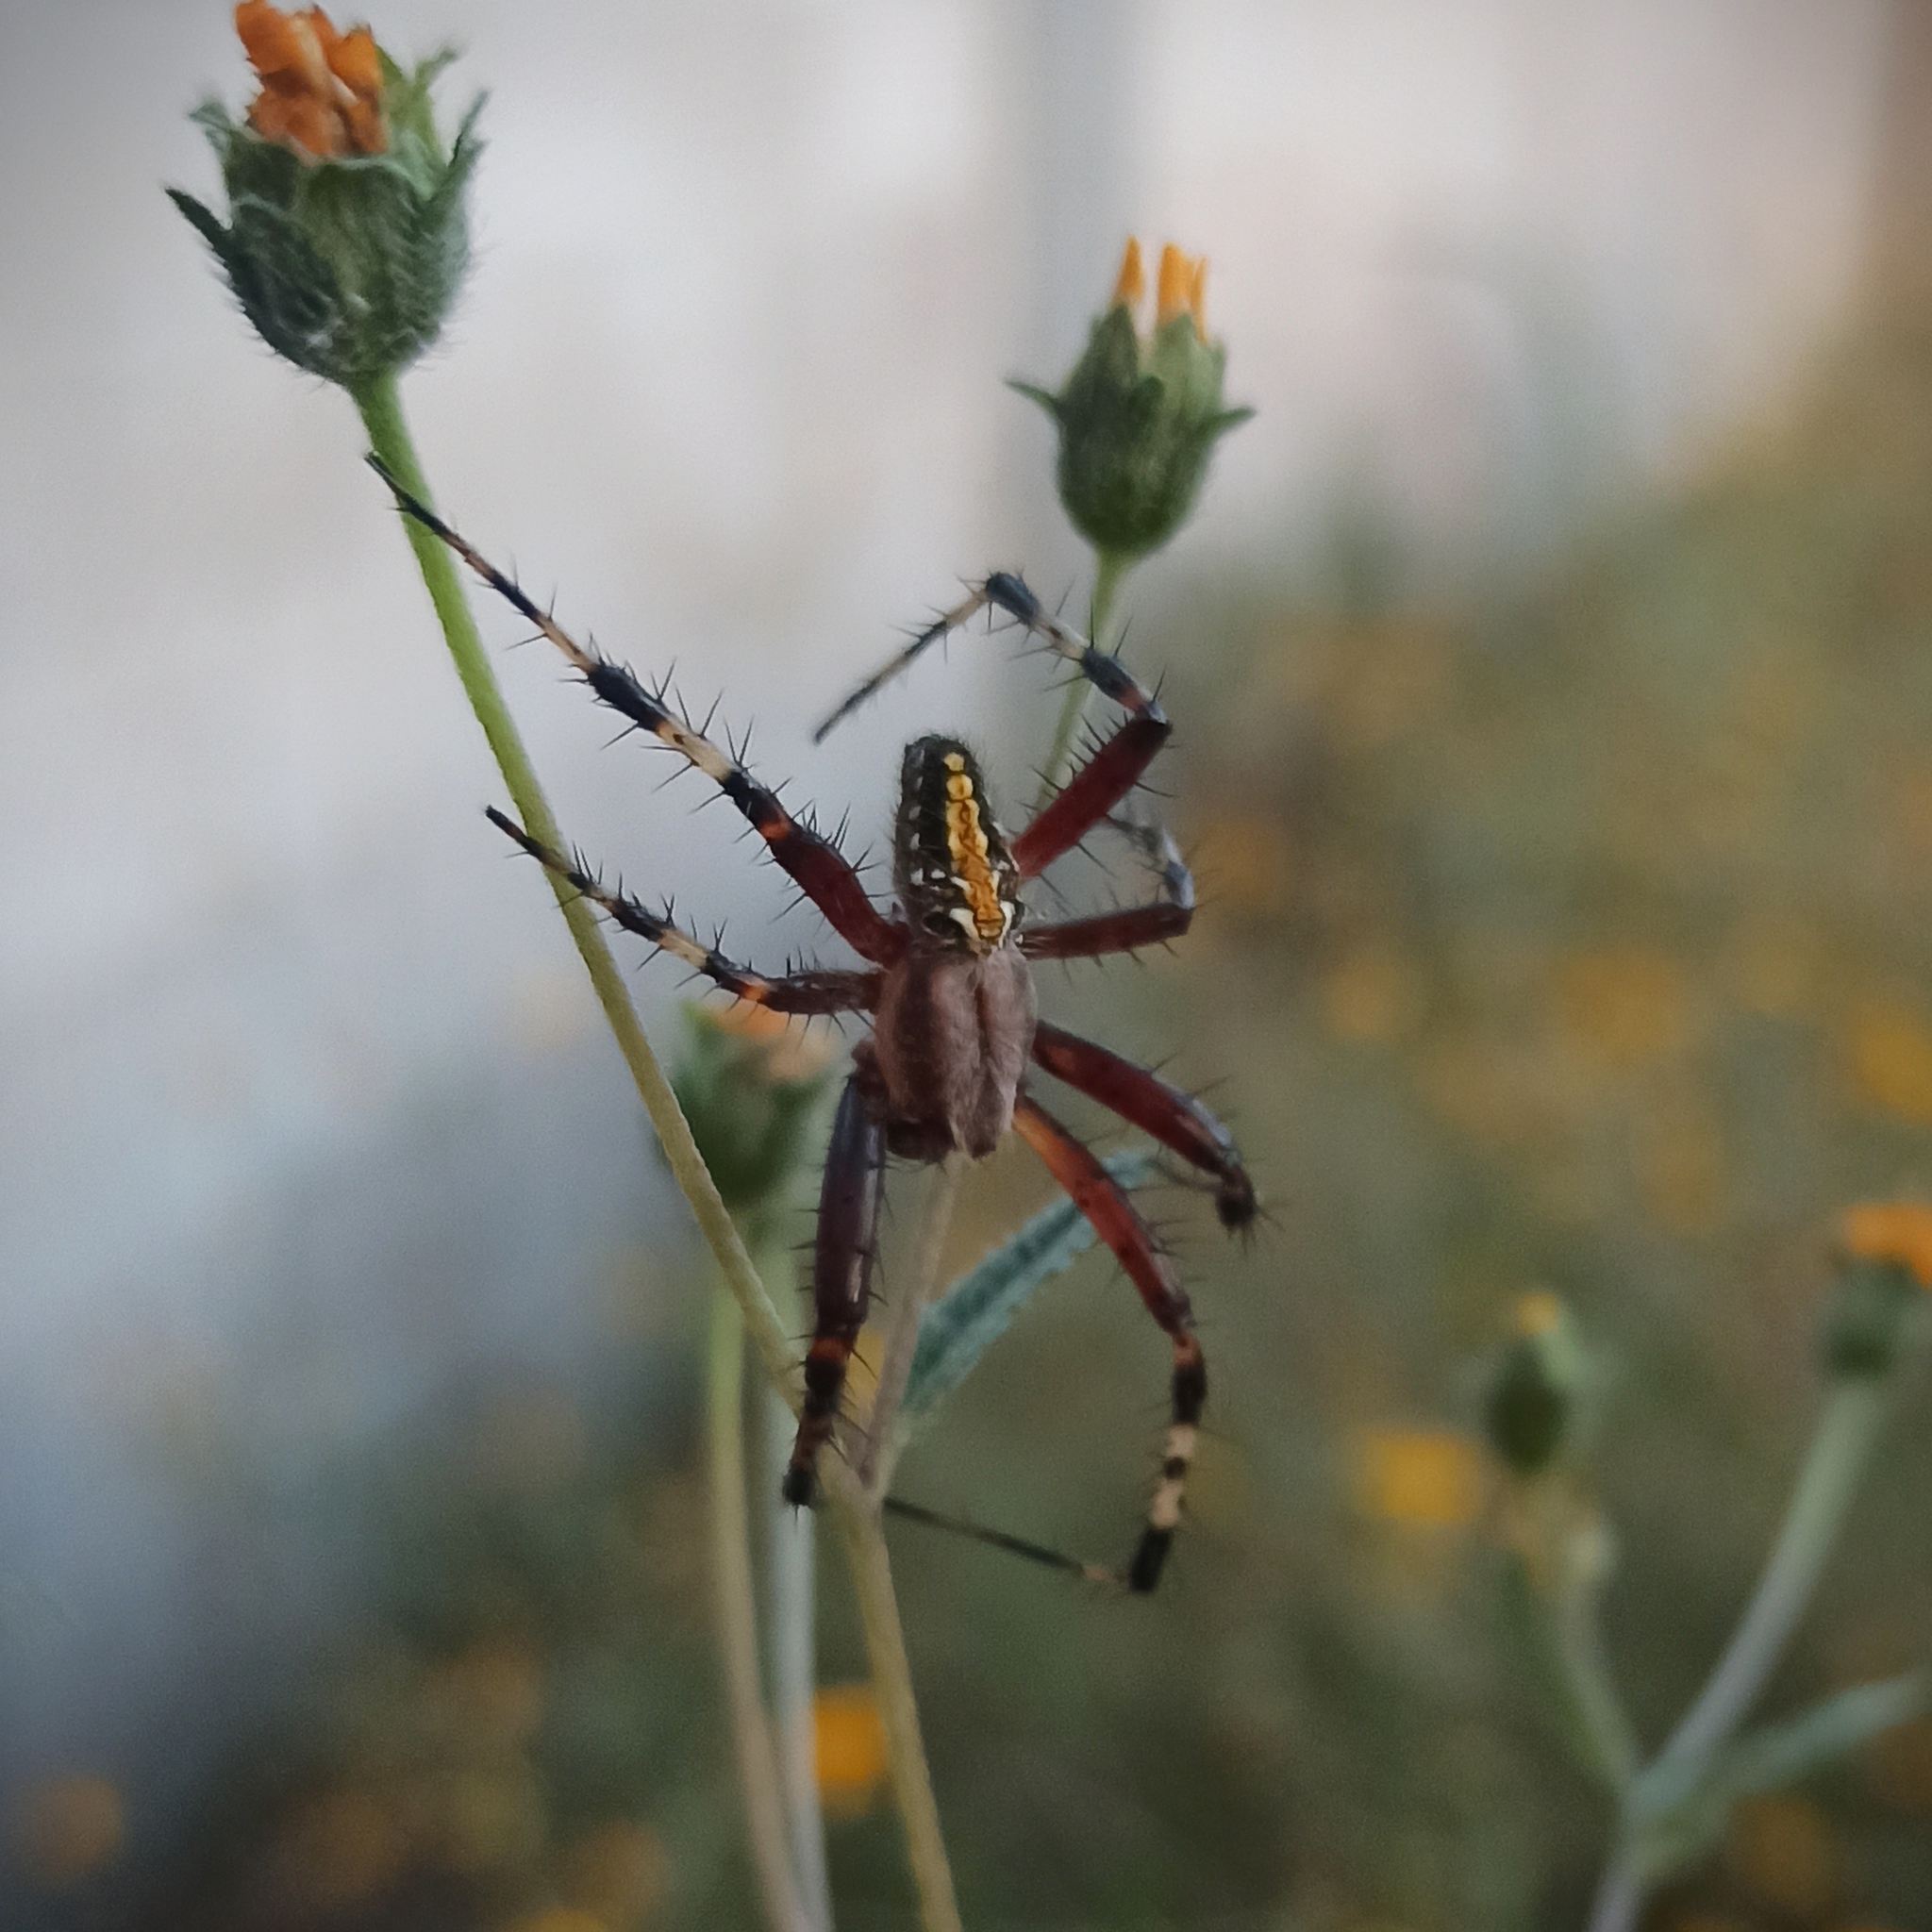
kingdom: Animalia
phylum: Arthropoda
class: Arachnida
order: Araneae
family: Araneidae
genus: Neoscona
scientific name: Neoscona oaxacensis
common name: Orb weavers
